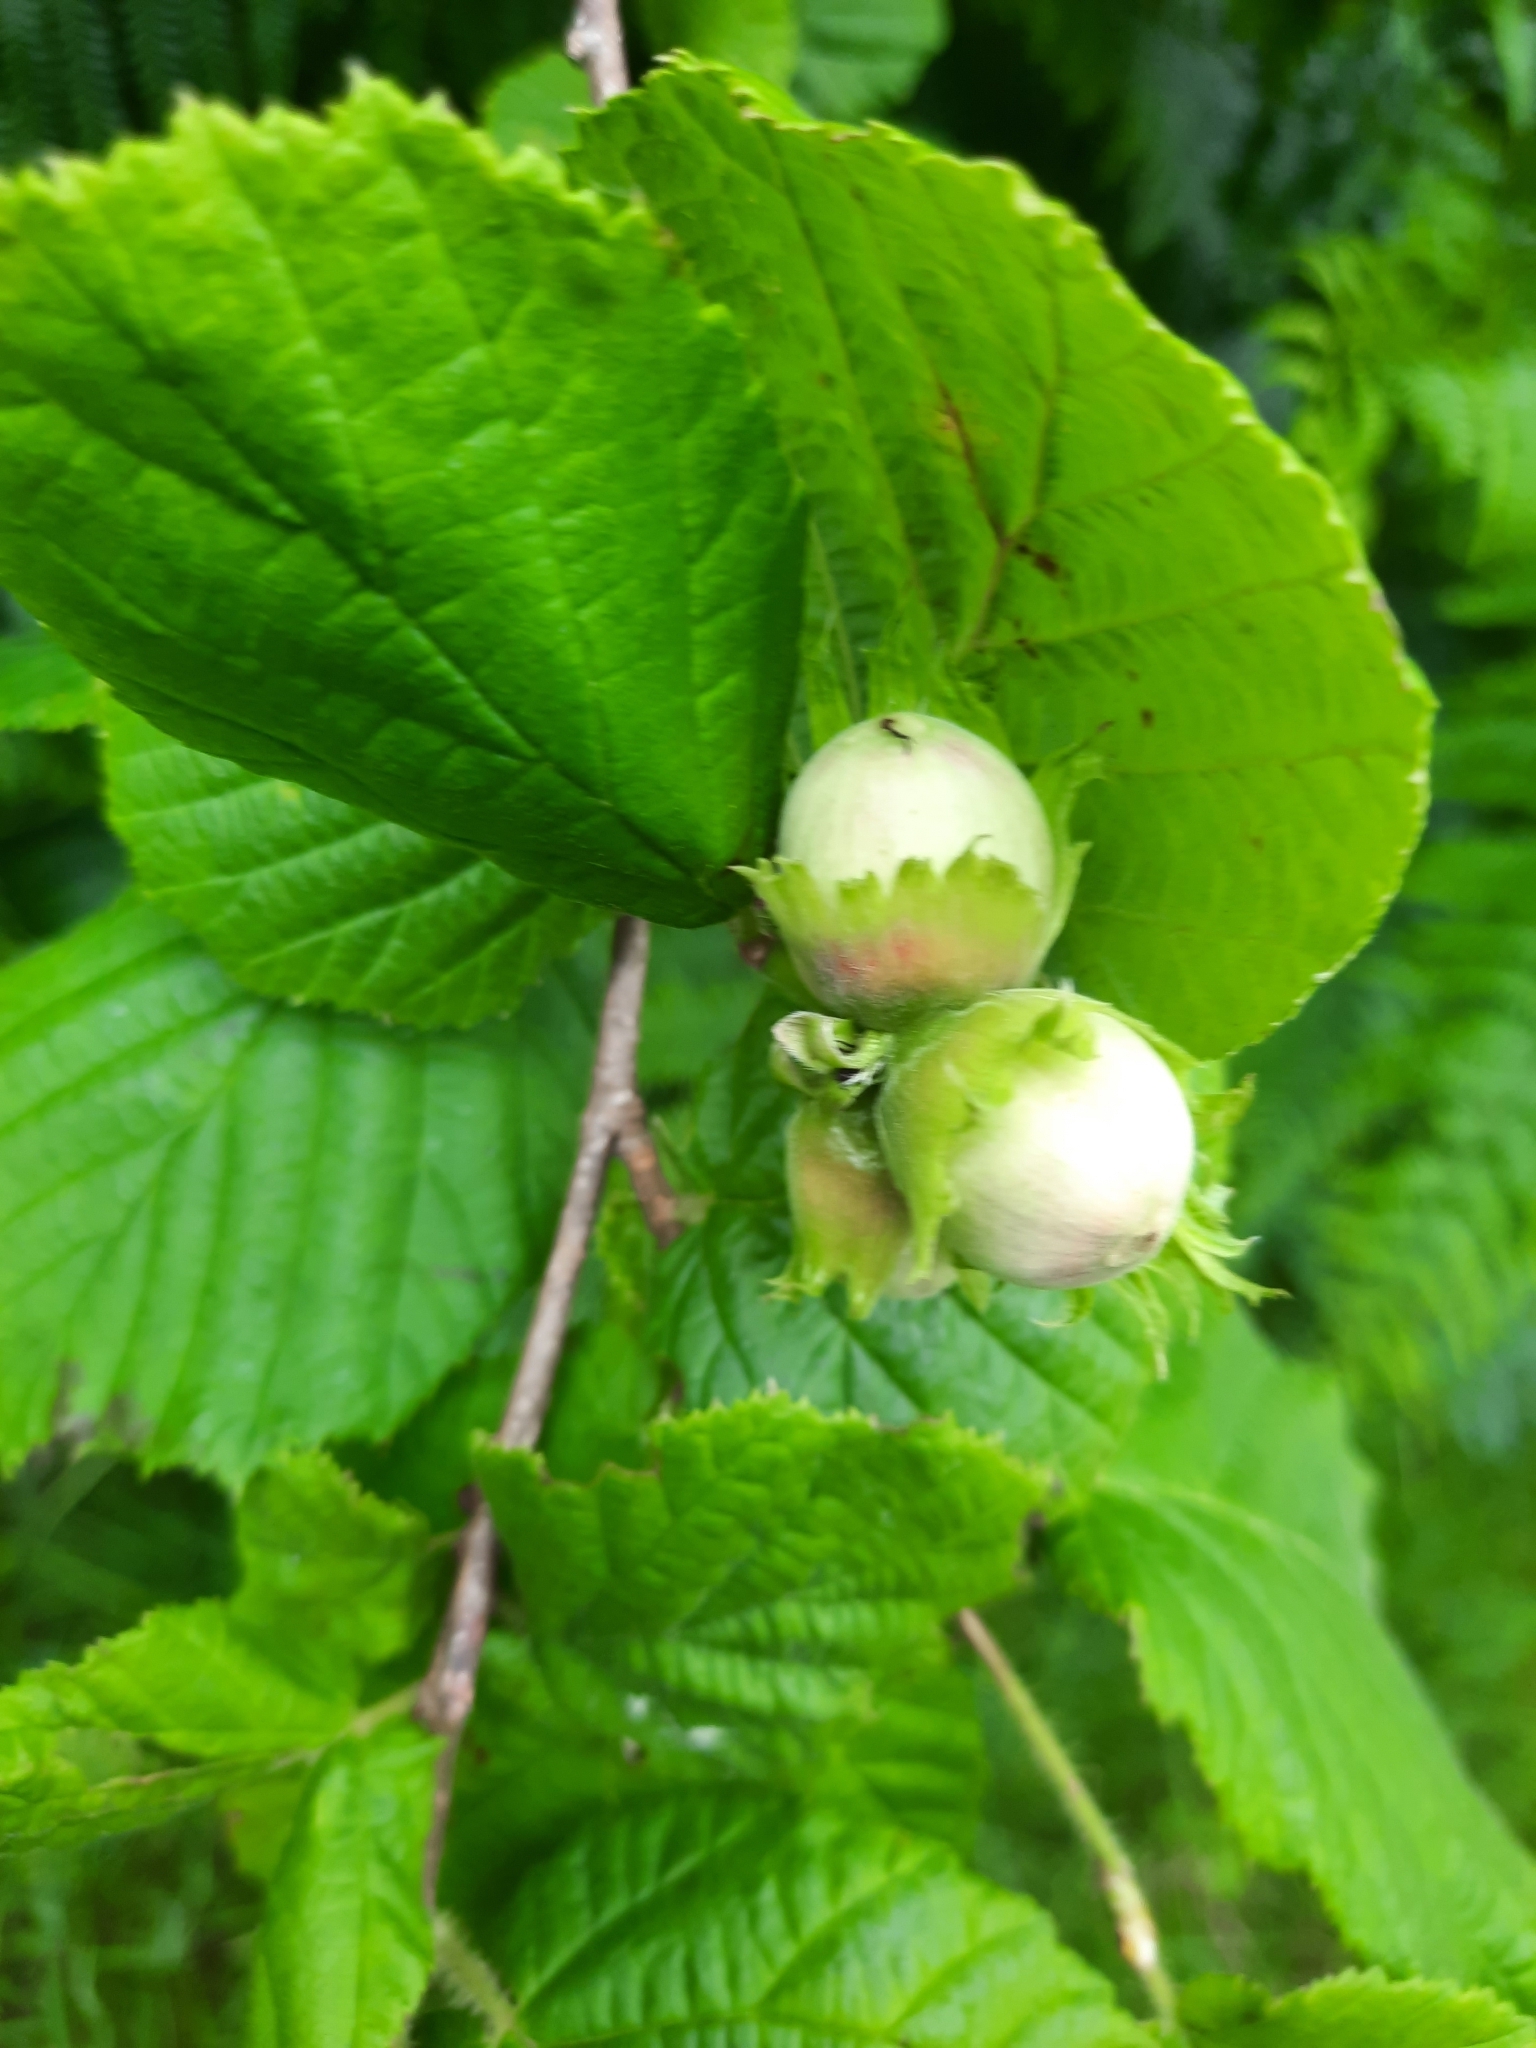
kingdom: Plantae
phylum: Tracheophyta
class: Magnoliopsida
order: Fagales
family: Betulaceae
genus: Corylus
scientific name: Corylus avellana
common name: European hazel
